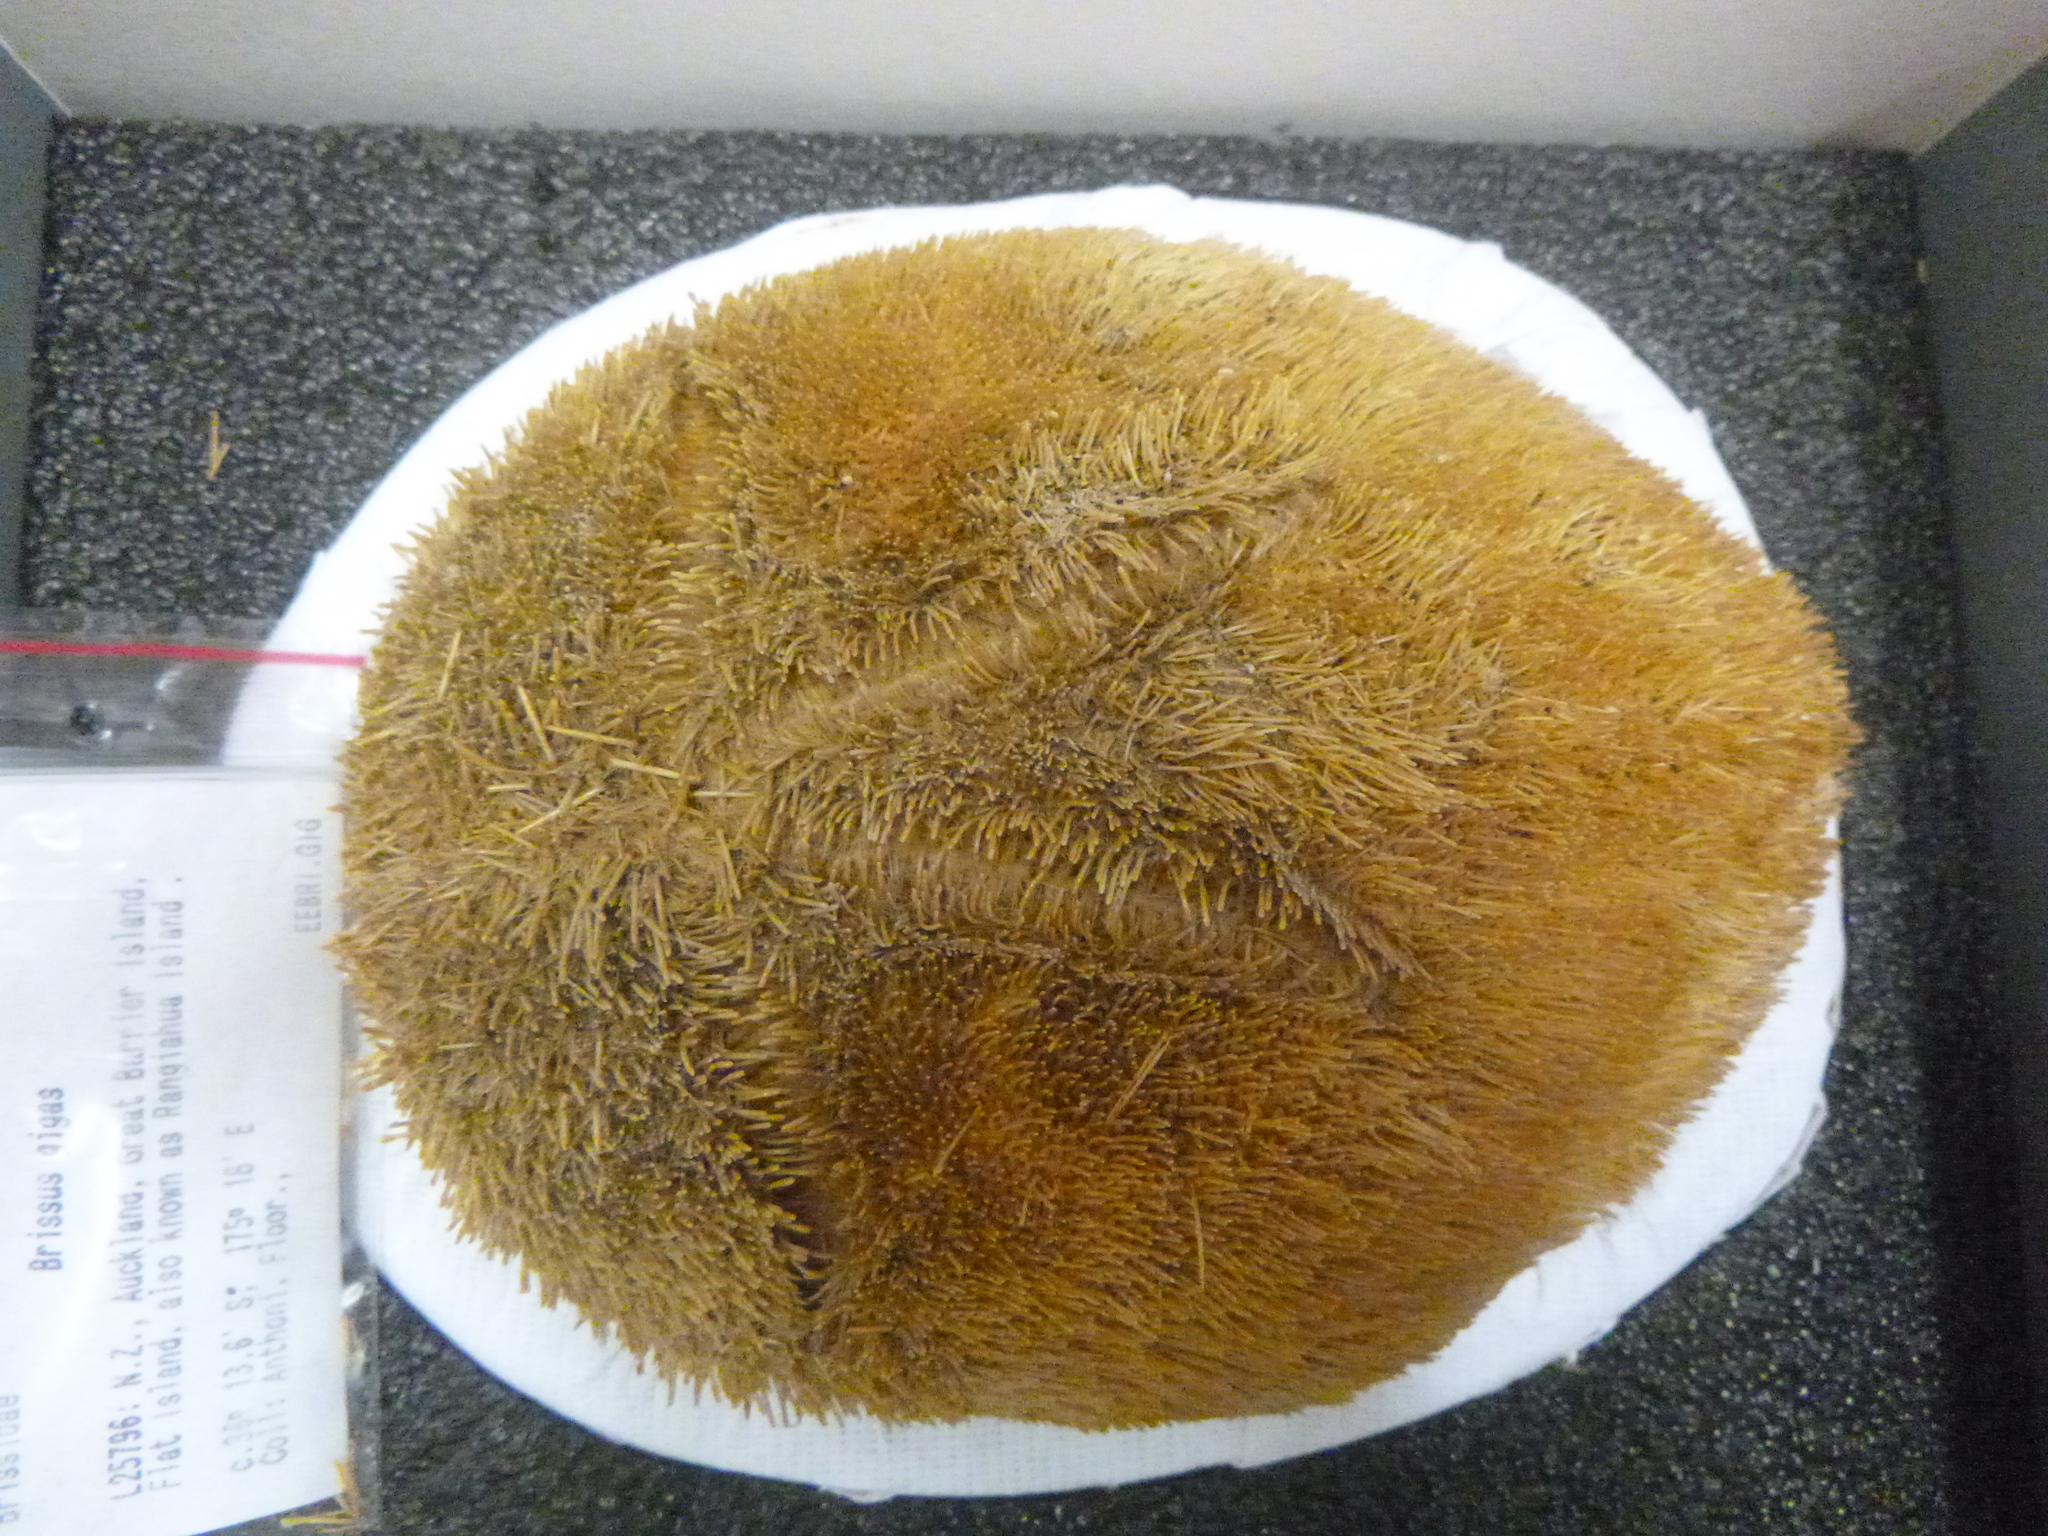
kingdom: Animalia
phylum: Echinodermata
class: Echinoidea
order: Spatangoida
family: Brissidae
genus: Brissus
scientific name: Brissus gigas
